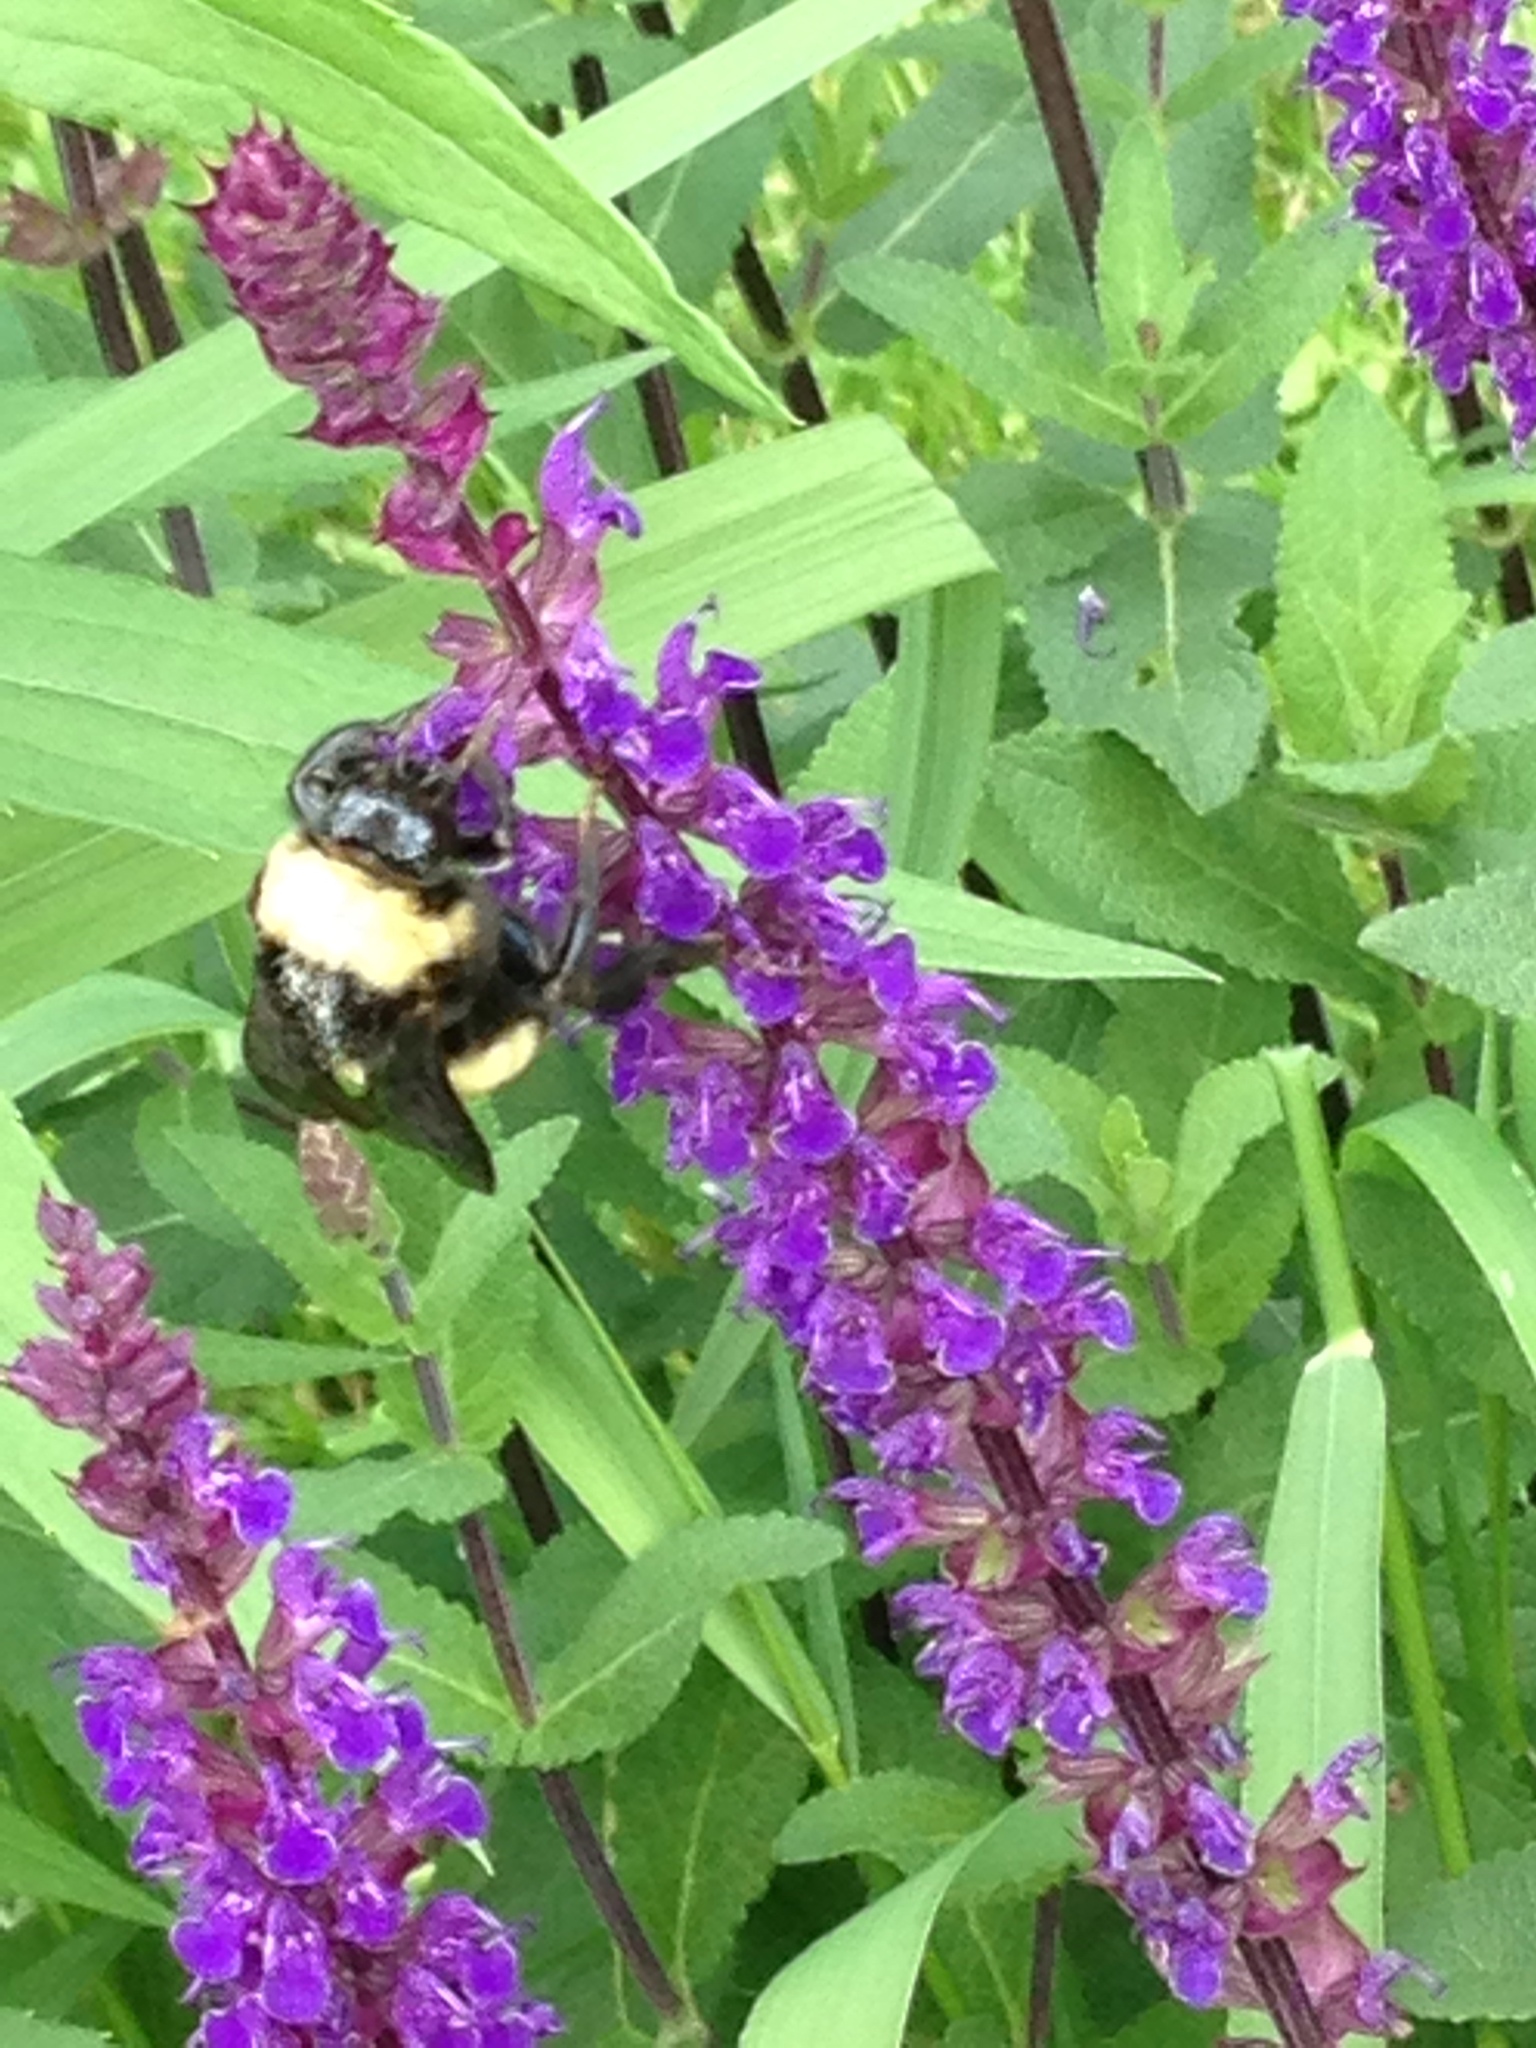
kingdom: Animalia
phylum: Arthropoda
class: Insecta
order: Hymenoptera
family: Apidae
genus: Bombus
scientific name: Bombus pensylvanicus
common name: Bumble bee
